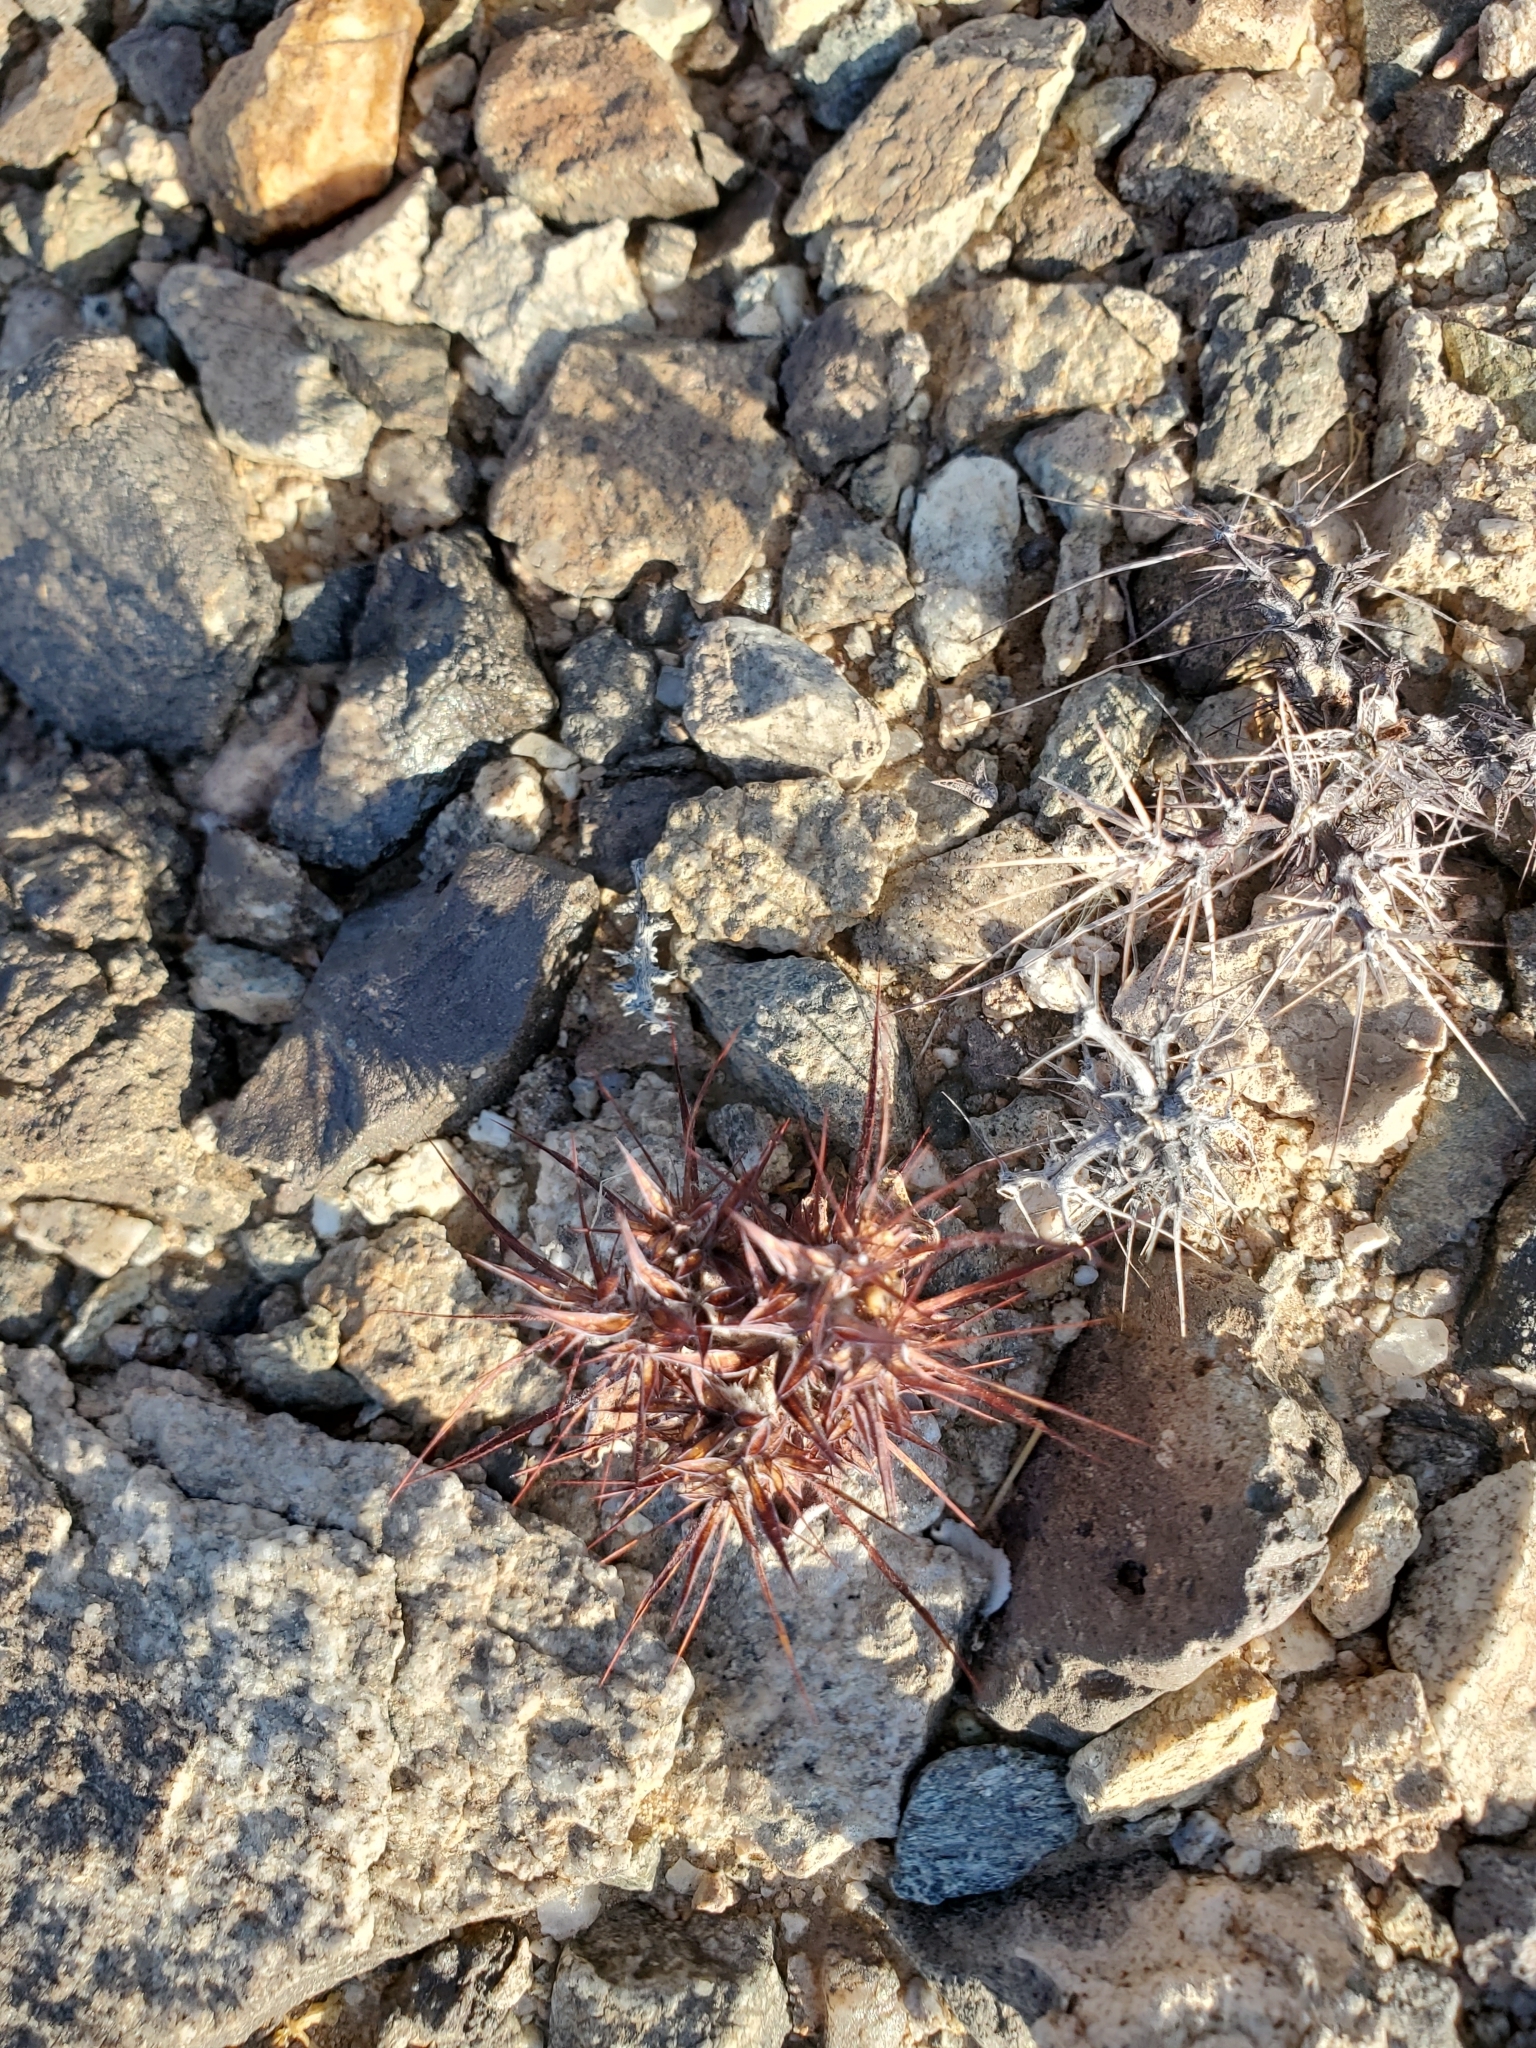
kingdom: Plantae
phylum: Tracheophyta
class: Magnoliopsida
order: Caryophyllales
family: Polygonaceae
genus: Chorizanthe
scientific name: Chorizanthe rigida
